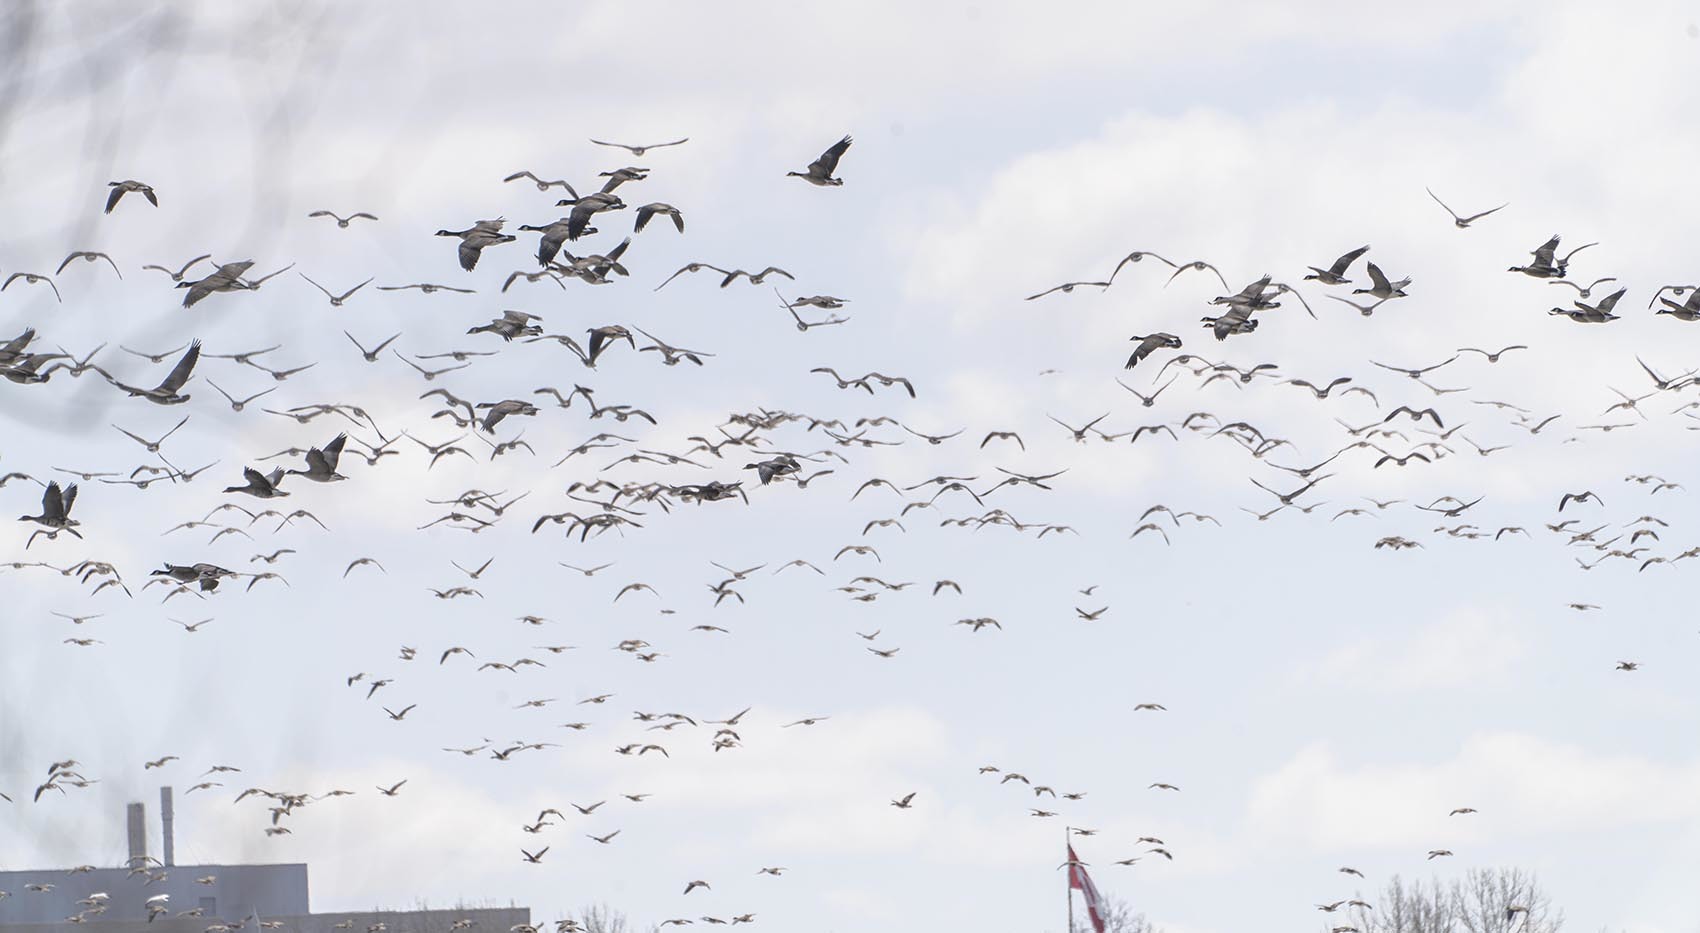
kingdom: Animalia
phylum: Chordata
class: Aves
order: Anseriformes
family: Anatidae
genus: Branta
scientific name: Branta canadensis
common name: Canada goose
